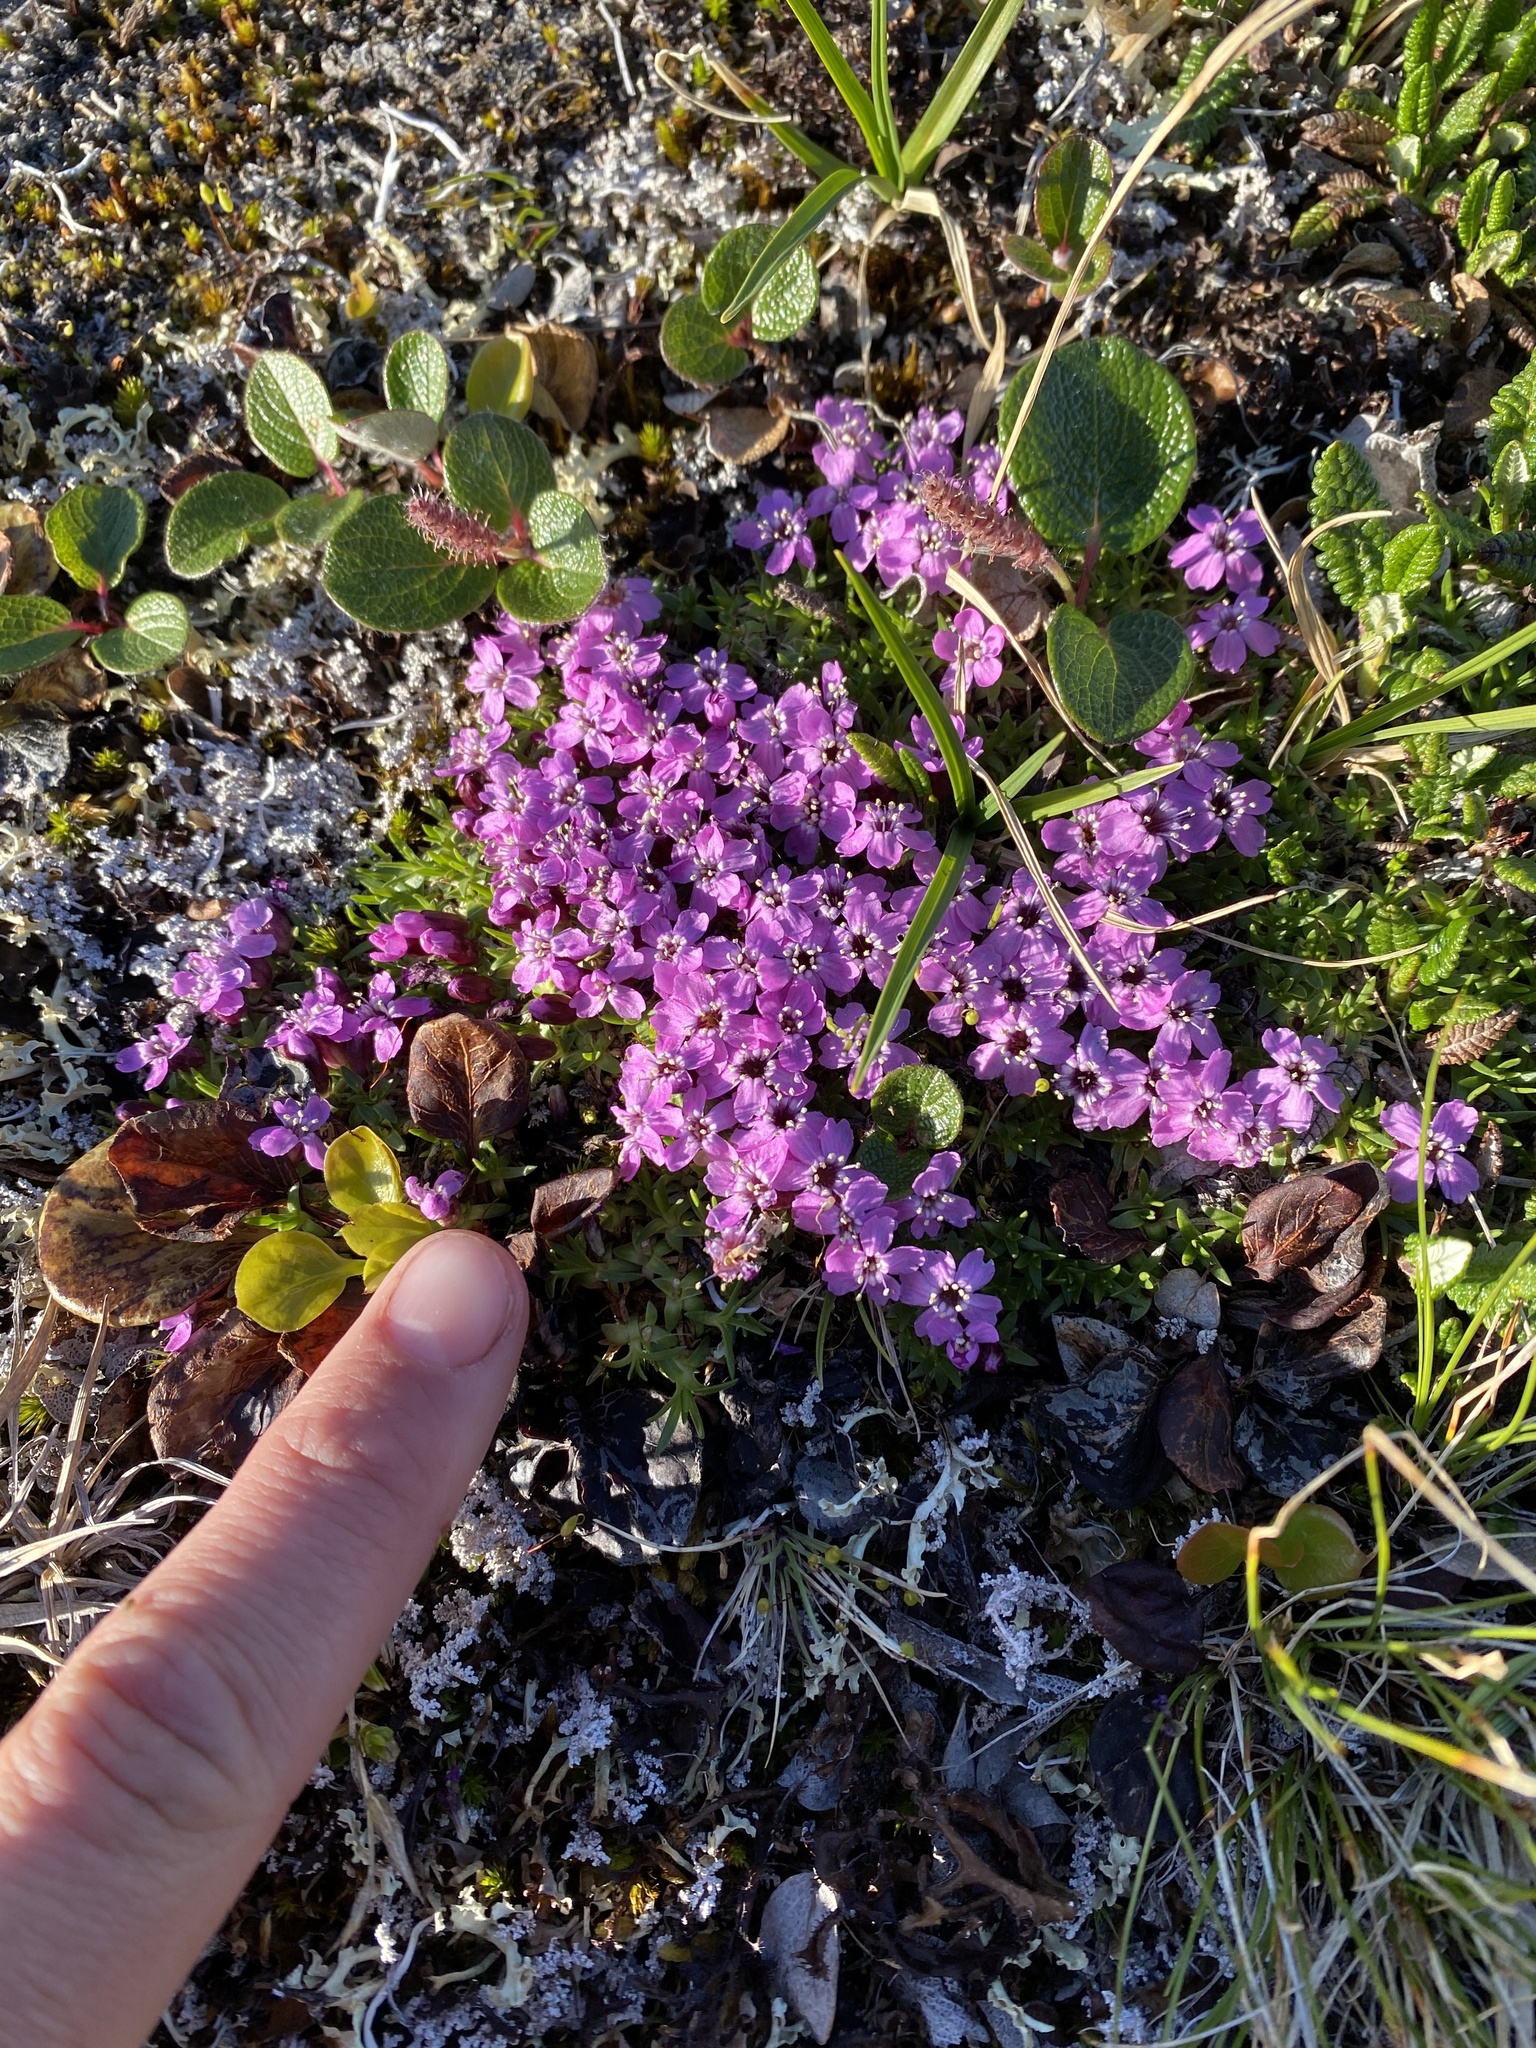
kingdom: Plantae
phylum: Tracheophyta
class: Magnoliopsida
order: Caryophyllales
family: Caryophyllaceae
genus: Silene
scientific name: Silene acaulis
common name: Moss campion
